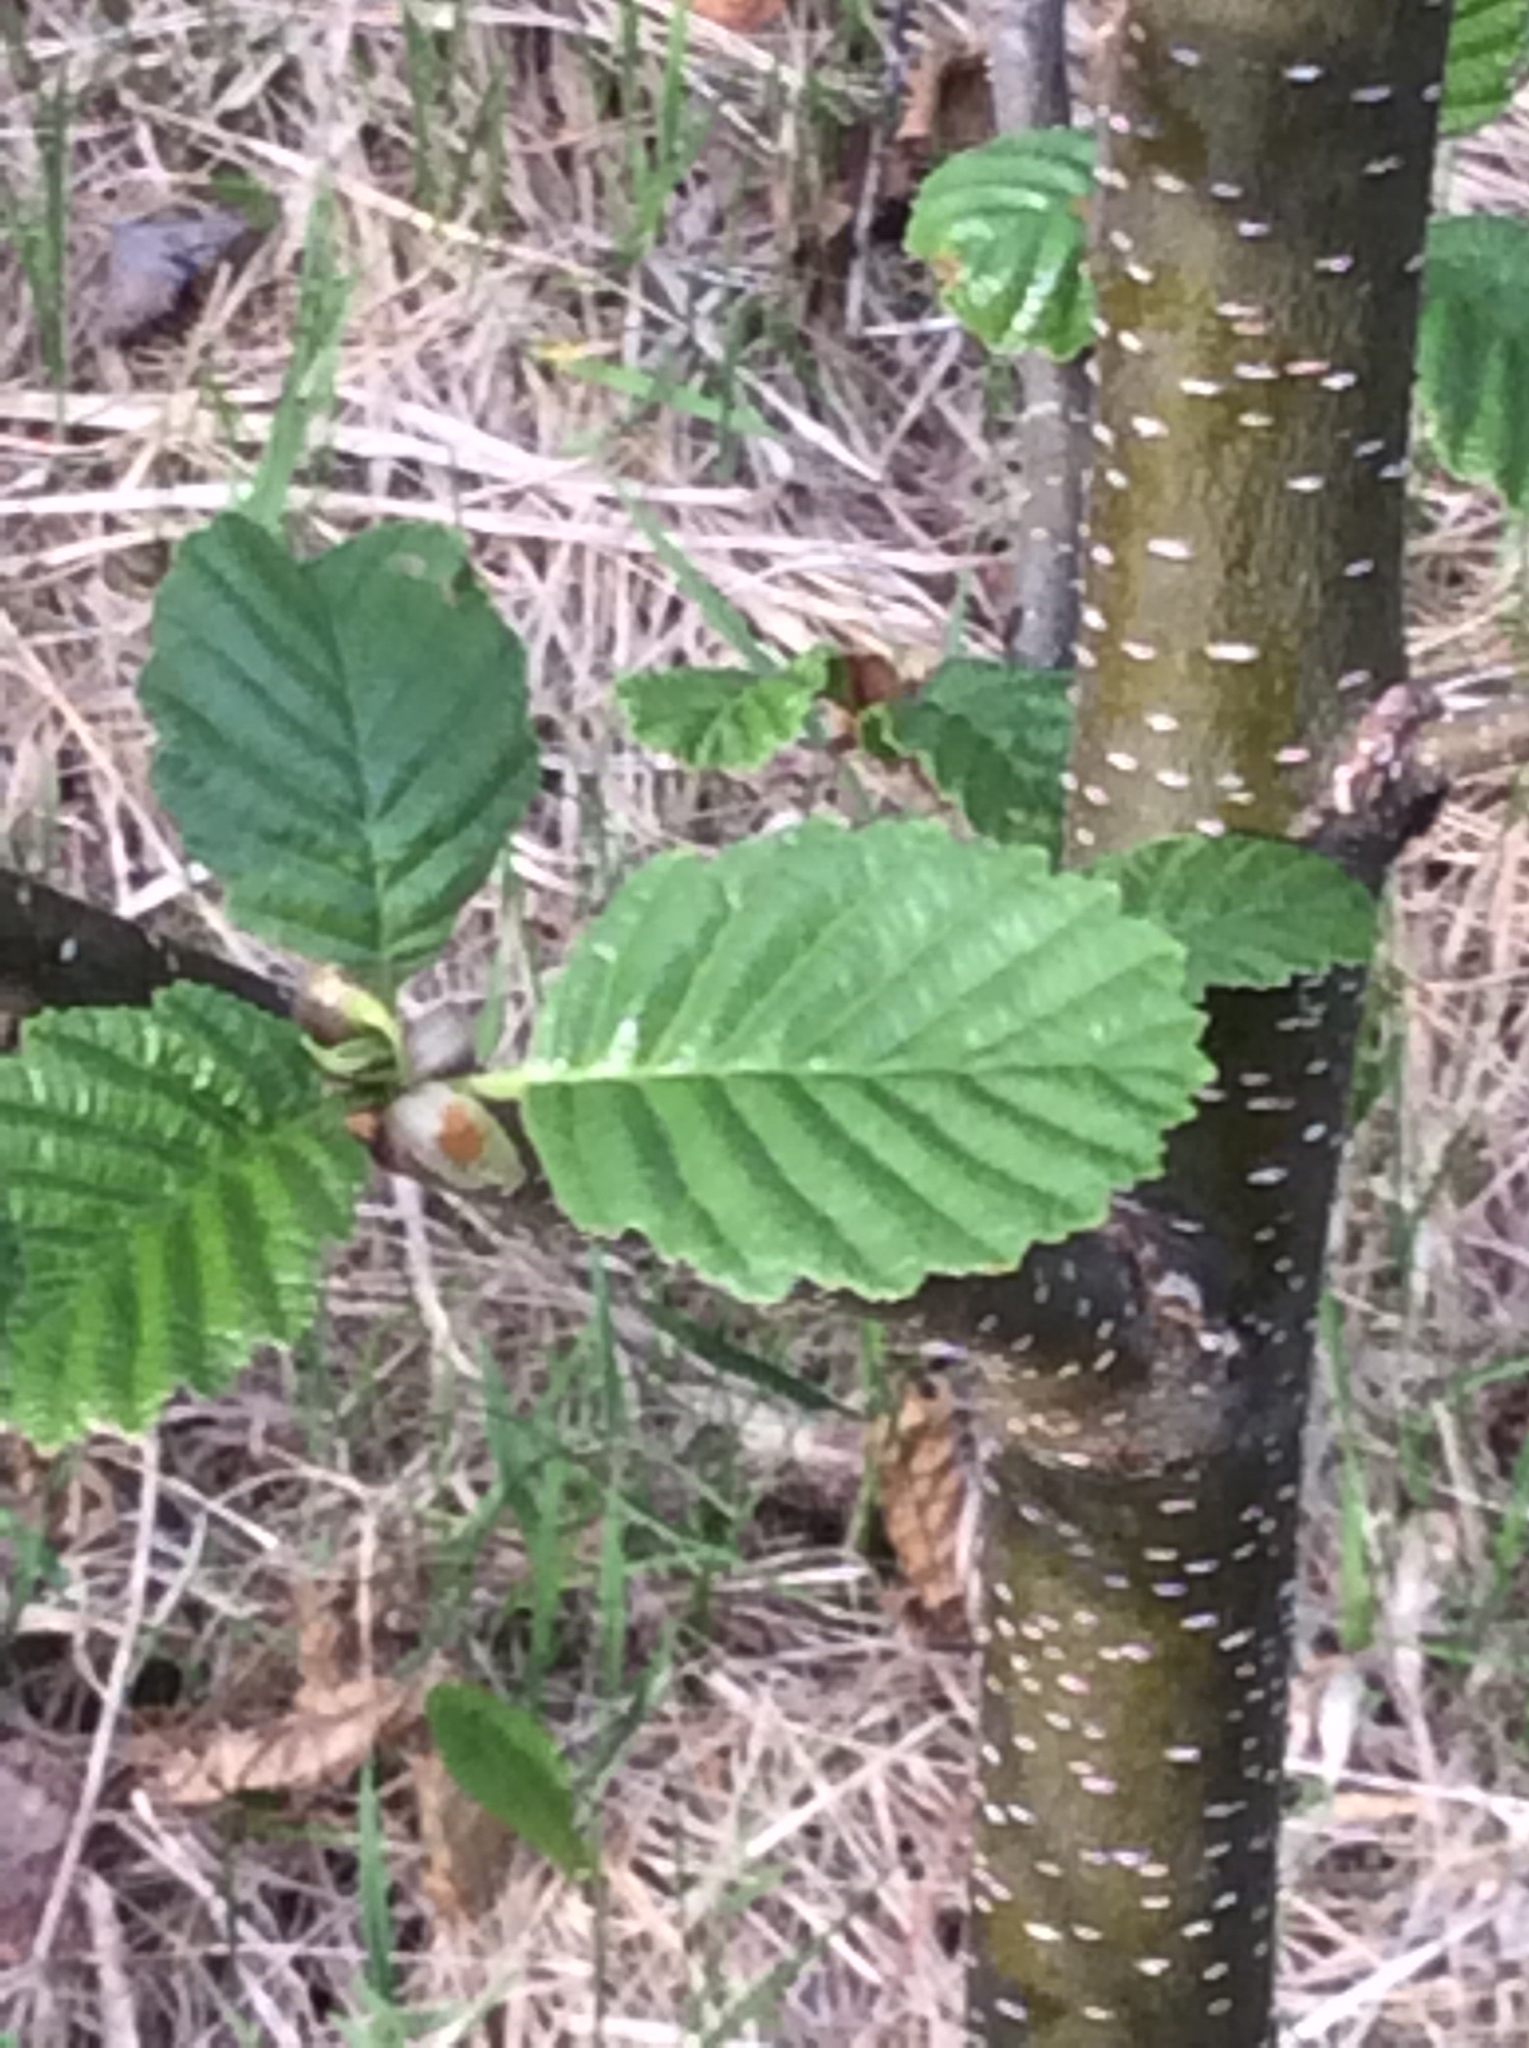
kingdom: Plantae
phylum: Tracheophyta
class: Magnoliopsida
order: Fagales
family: Betulaceae
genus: Alnus
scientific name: Alnus glutinosa
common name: Black alder
